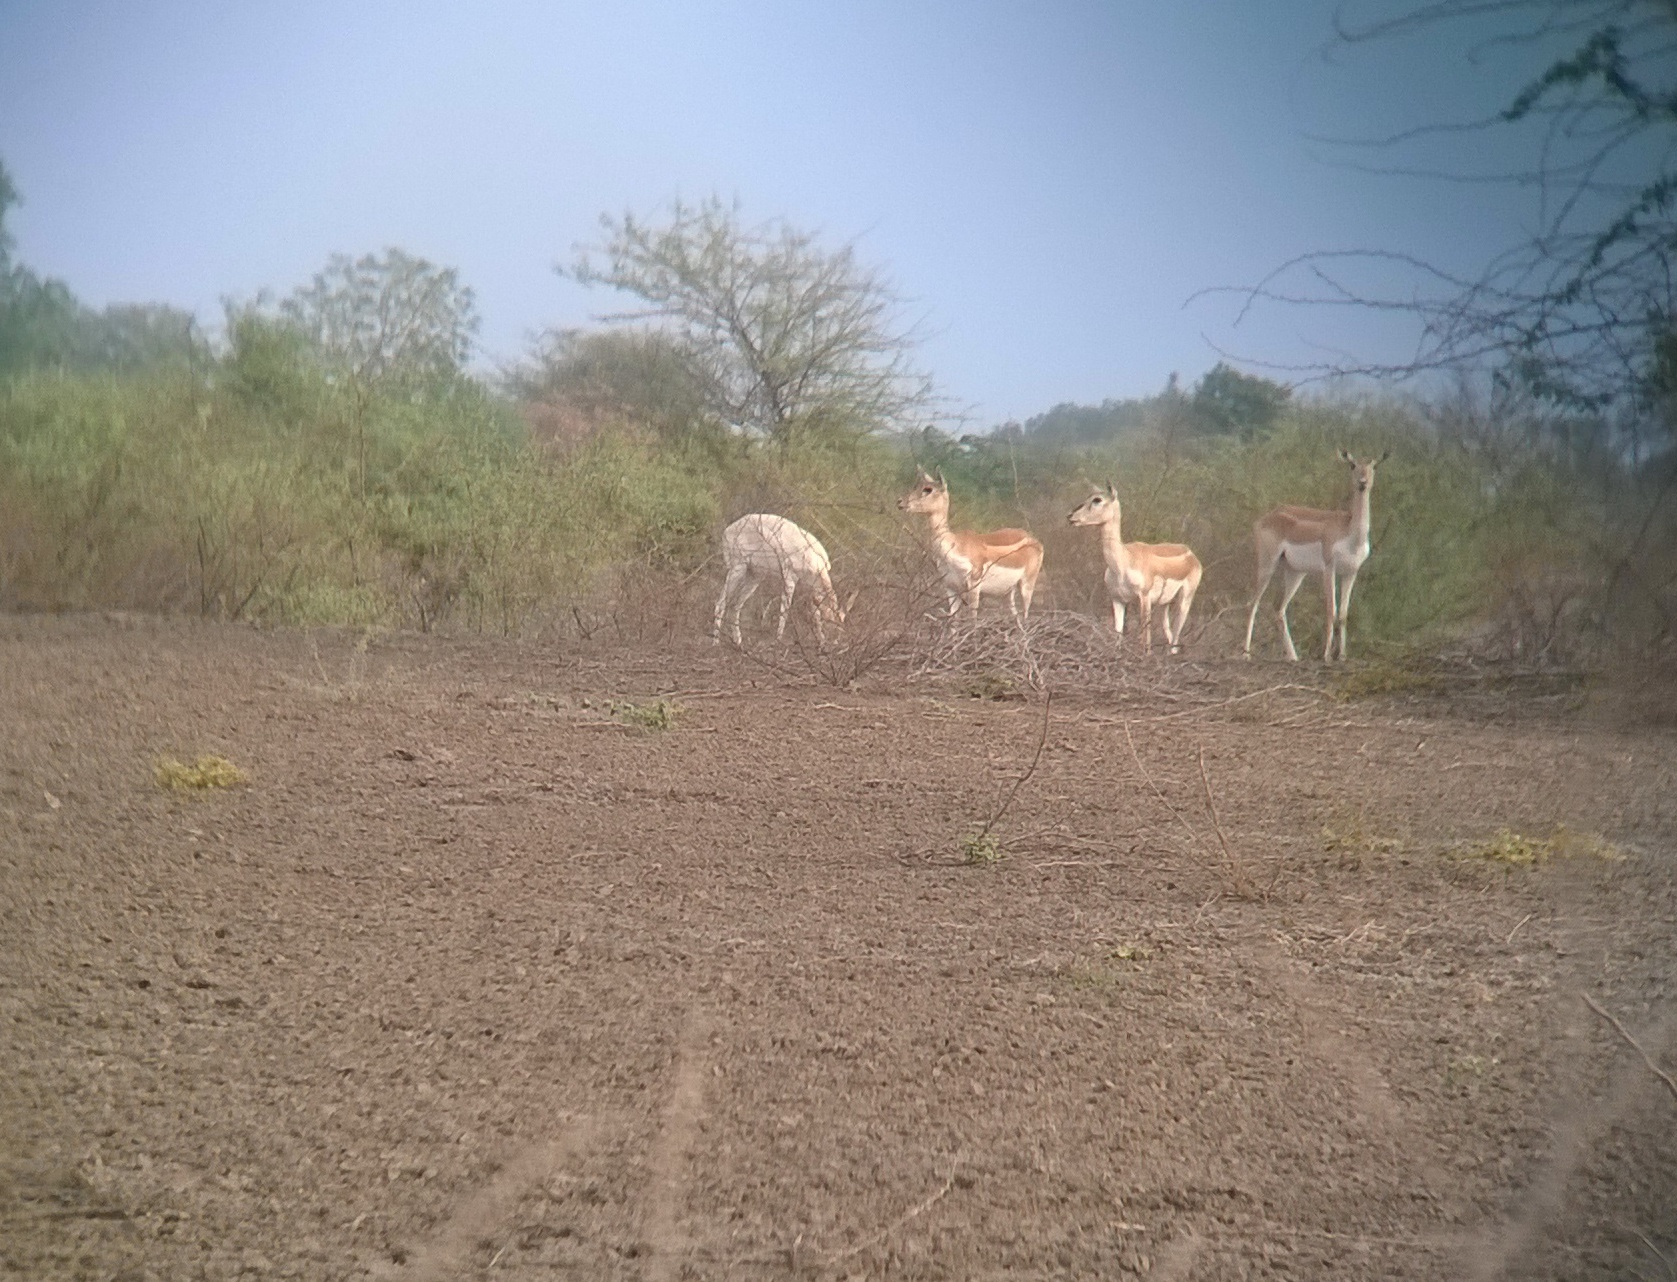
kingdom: Animalia
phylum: Chordata
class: Mammalia
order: Artiodactyla
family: Bovidae
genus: Antilope
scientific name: Antilope cervicapra
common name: Blackbuck
